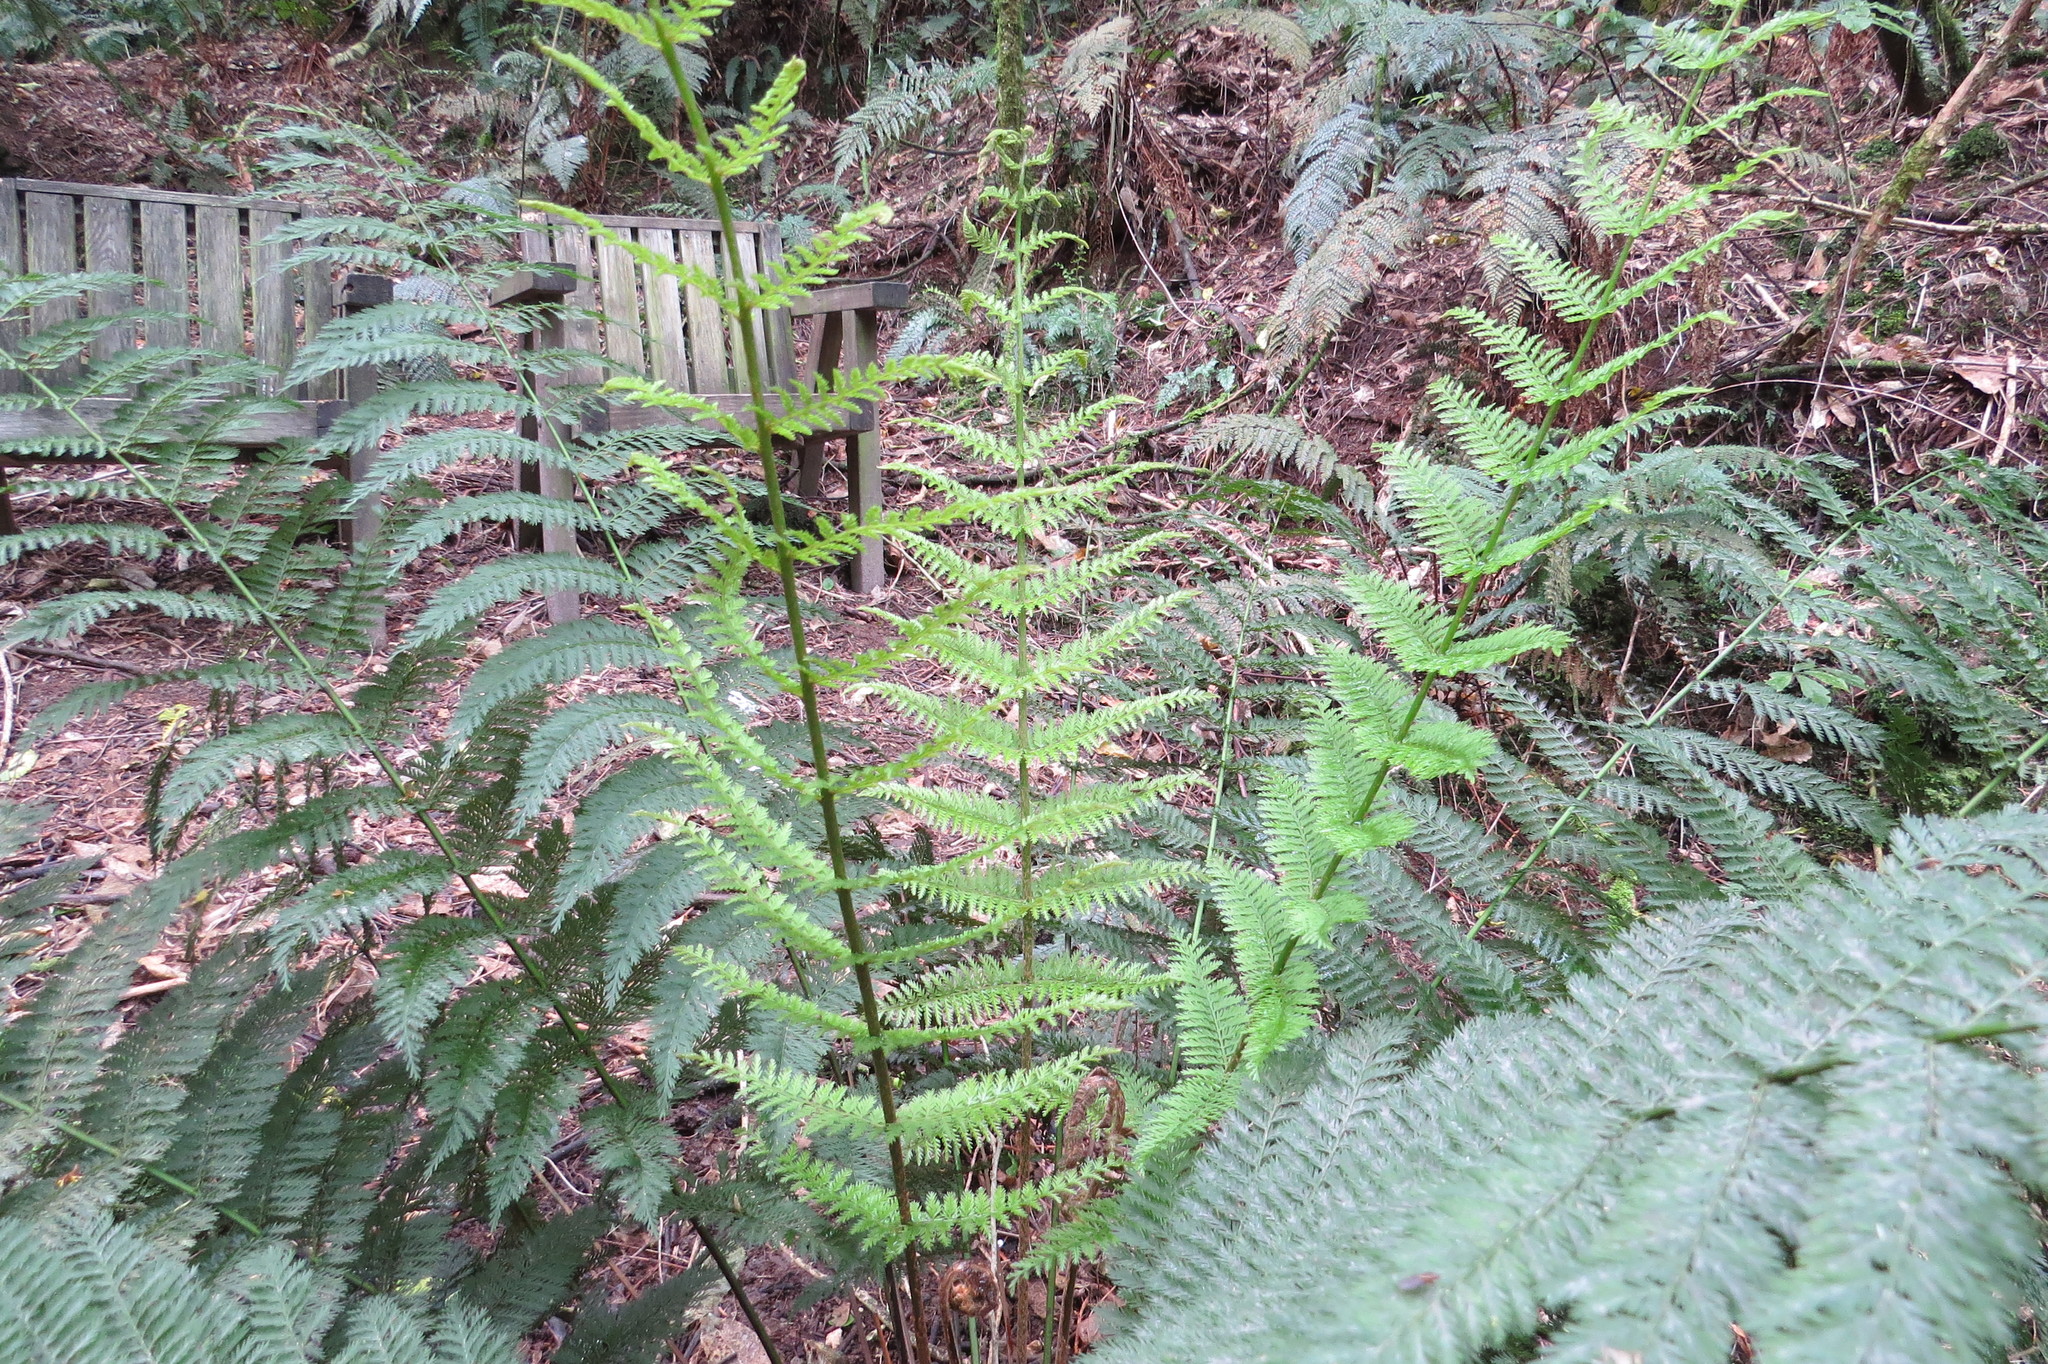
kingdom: Plantae
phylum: Tracheophyta
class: Polypodiopsida
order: Osmundales
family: Osmundaceae
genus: Leptopteris
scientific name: Leptopteris hymenophylloides
